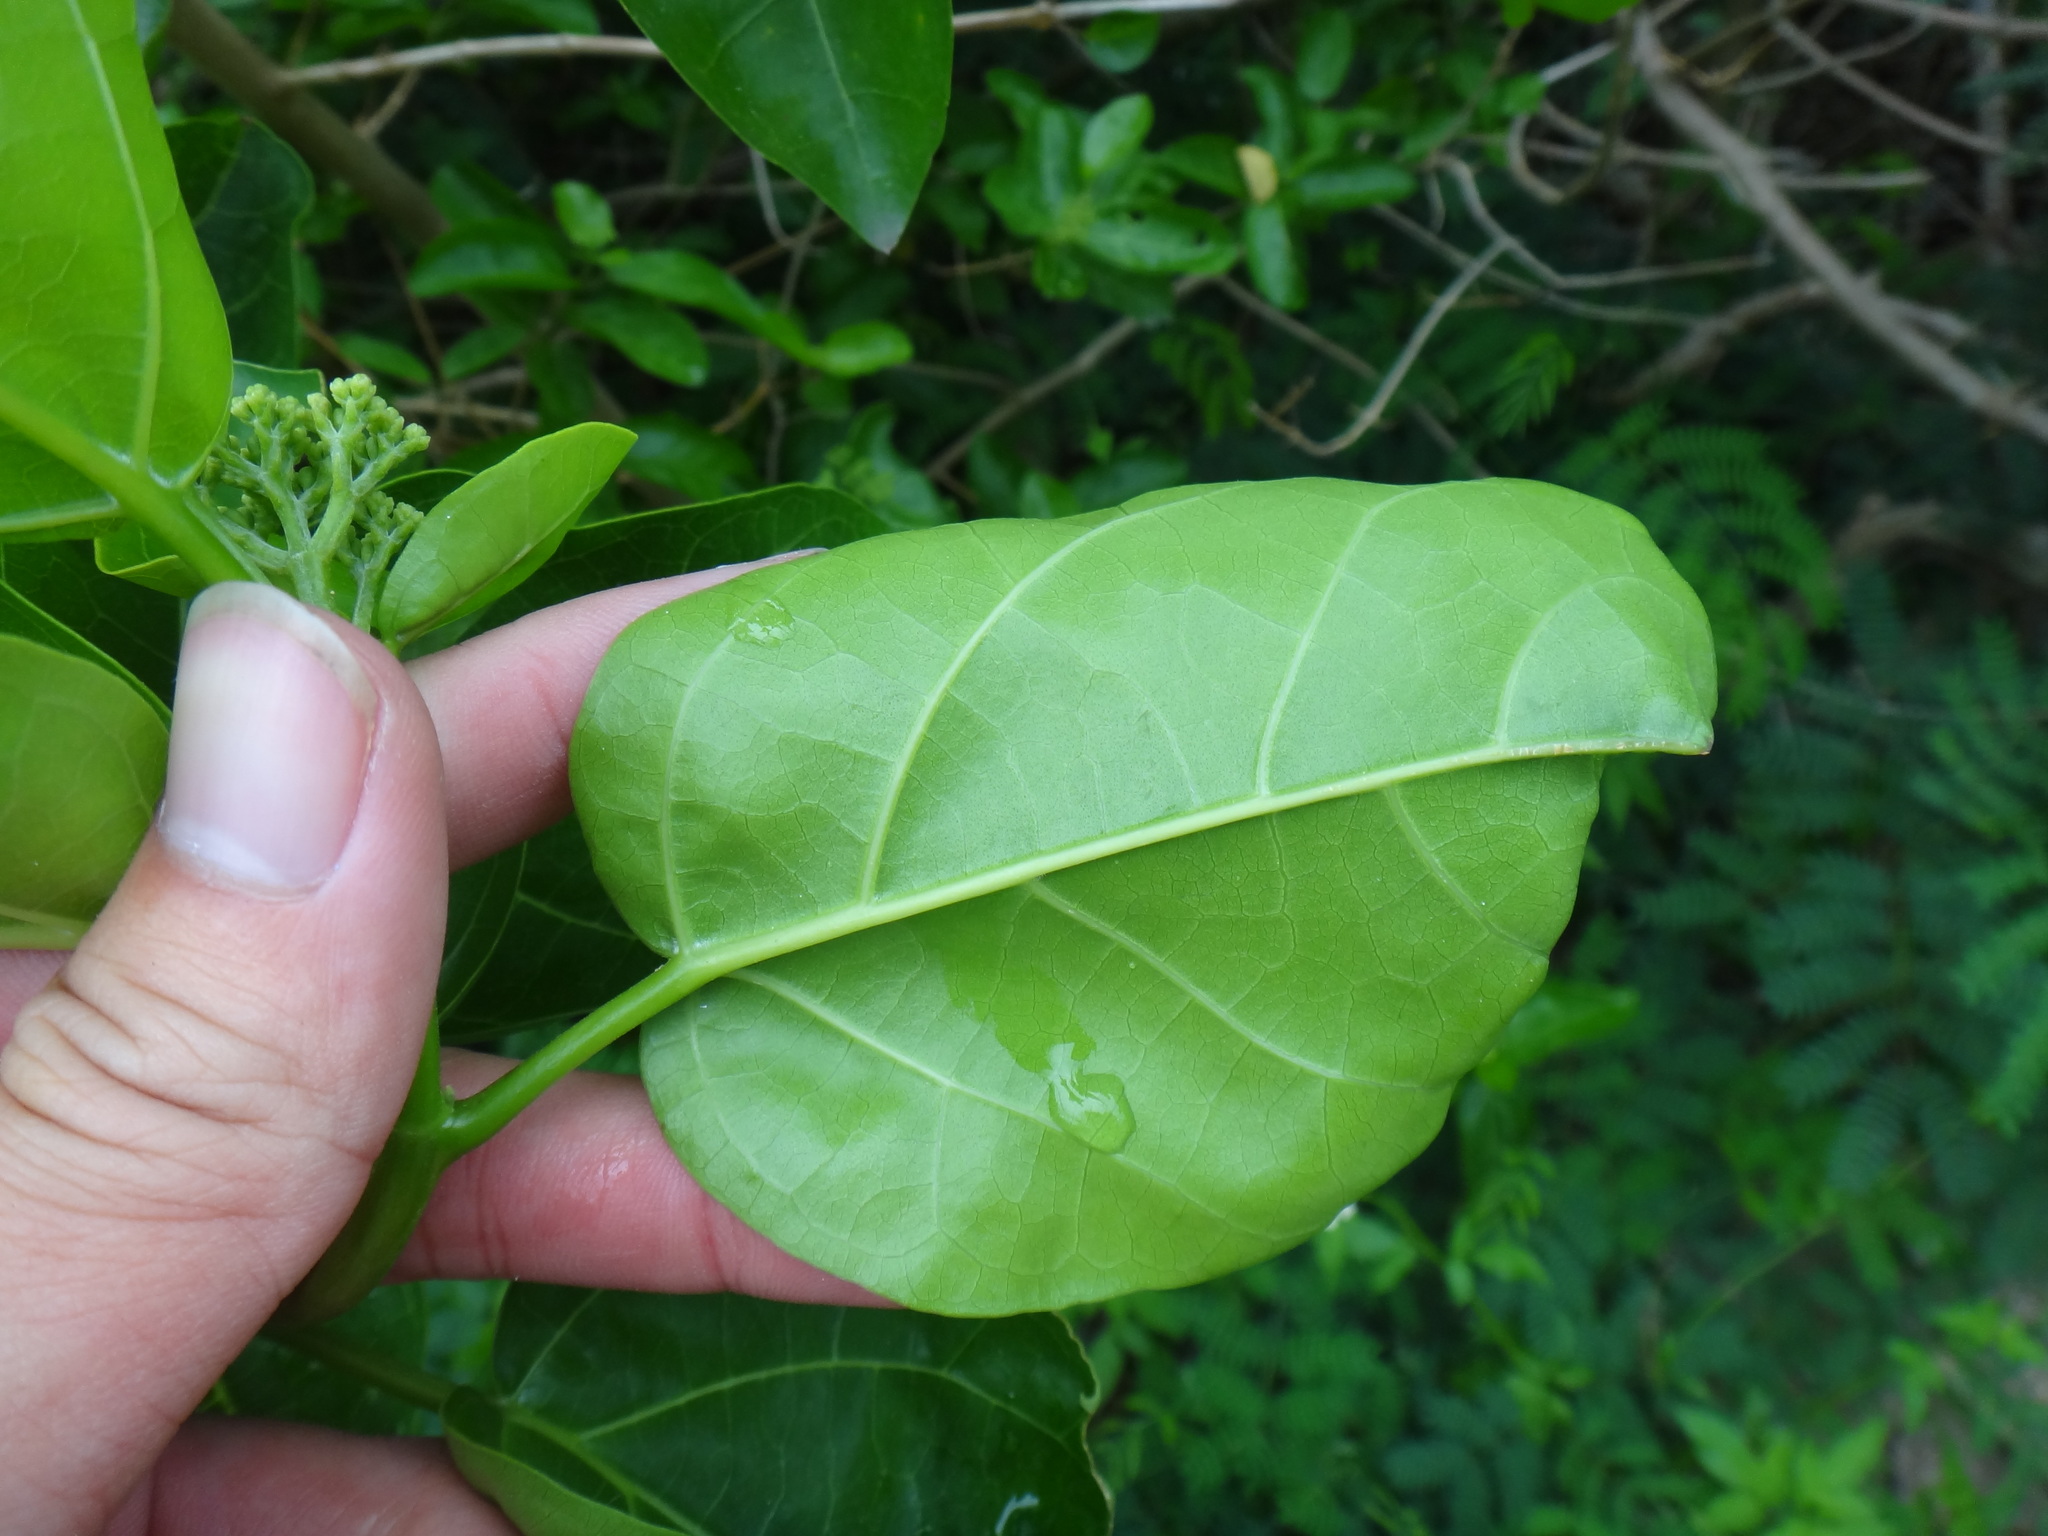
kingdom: Plantae
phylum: Tracheophyta
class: Magnoliopsida
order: Lamiales
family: Lamiaceae
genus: Premna
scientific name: Premna serratifolia
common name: Bastard guelder
